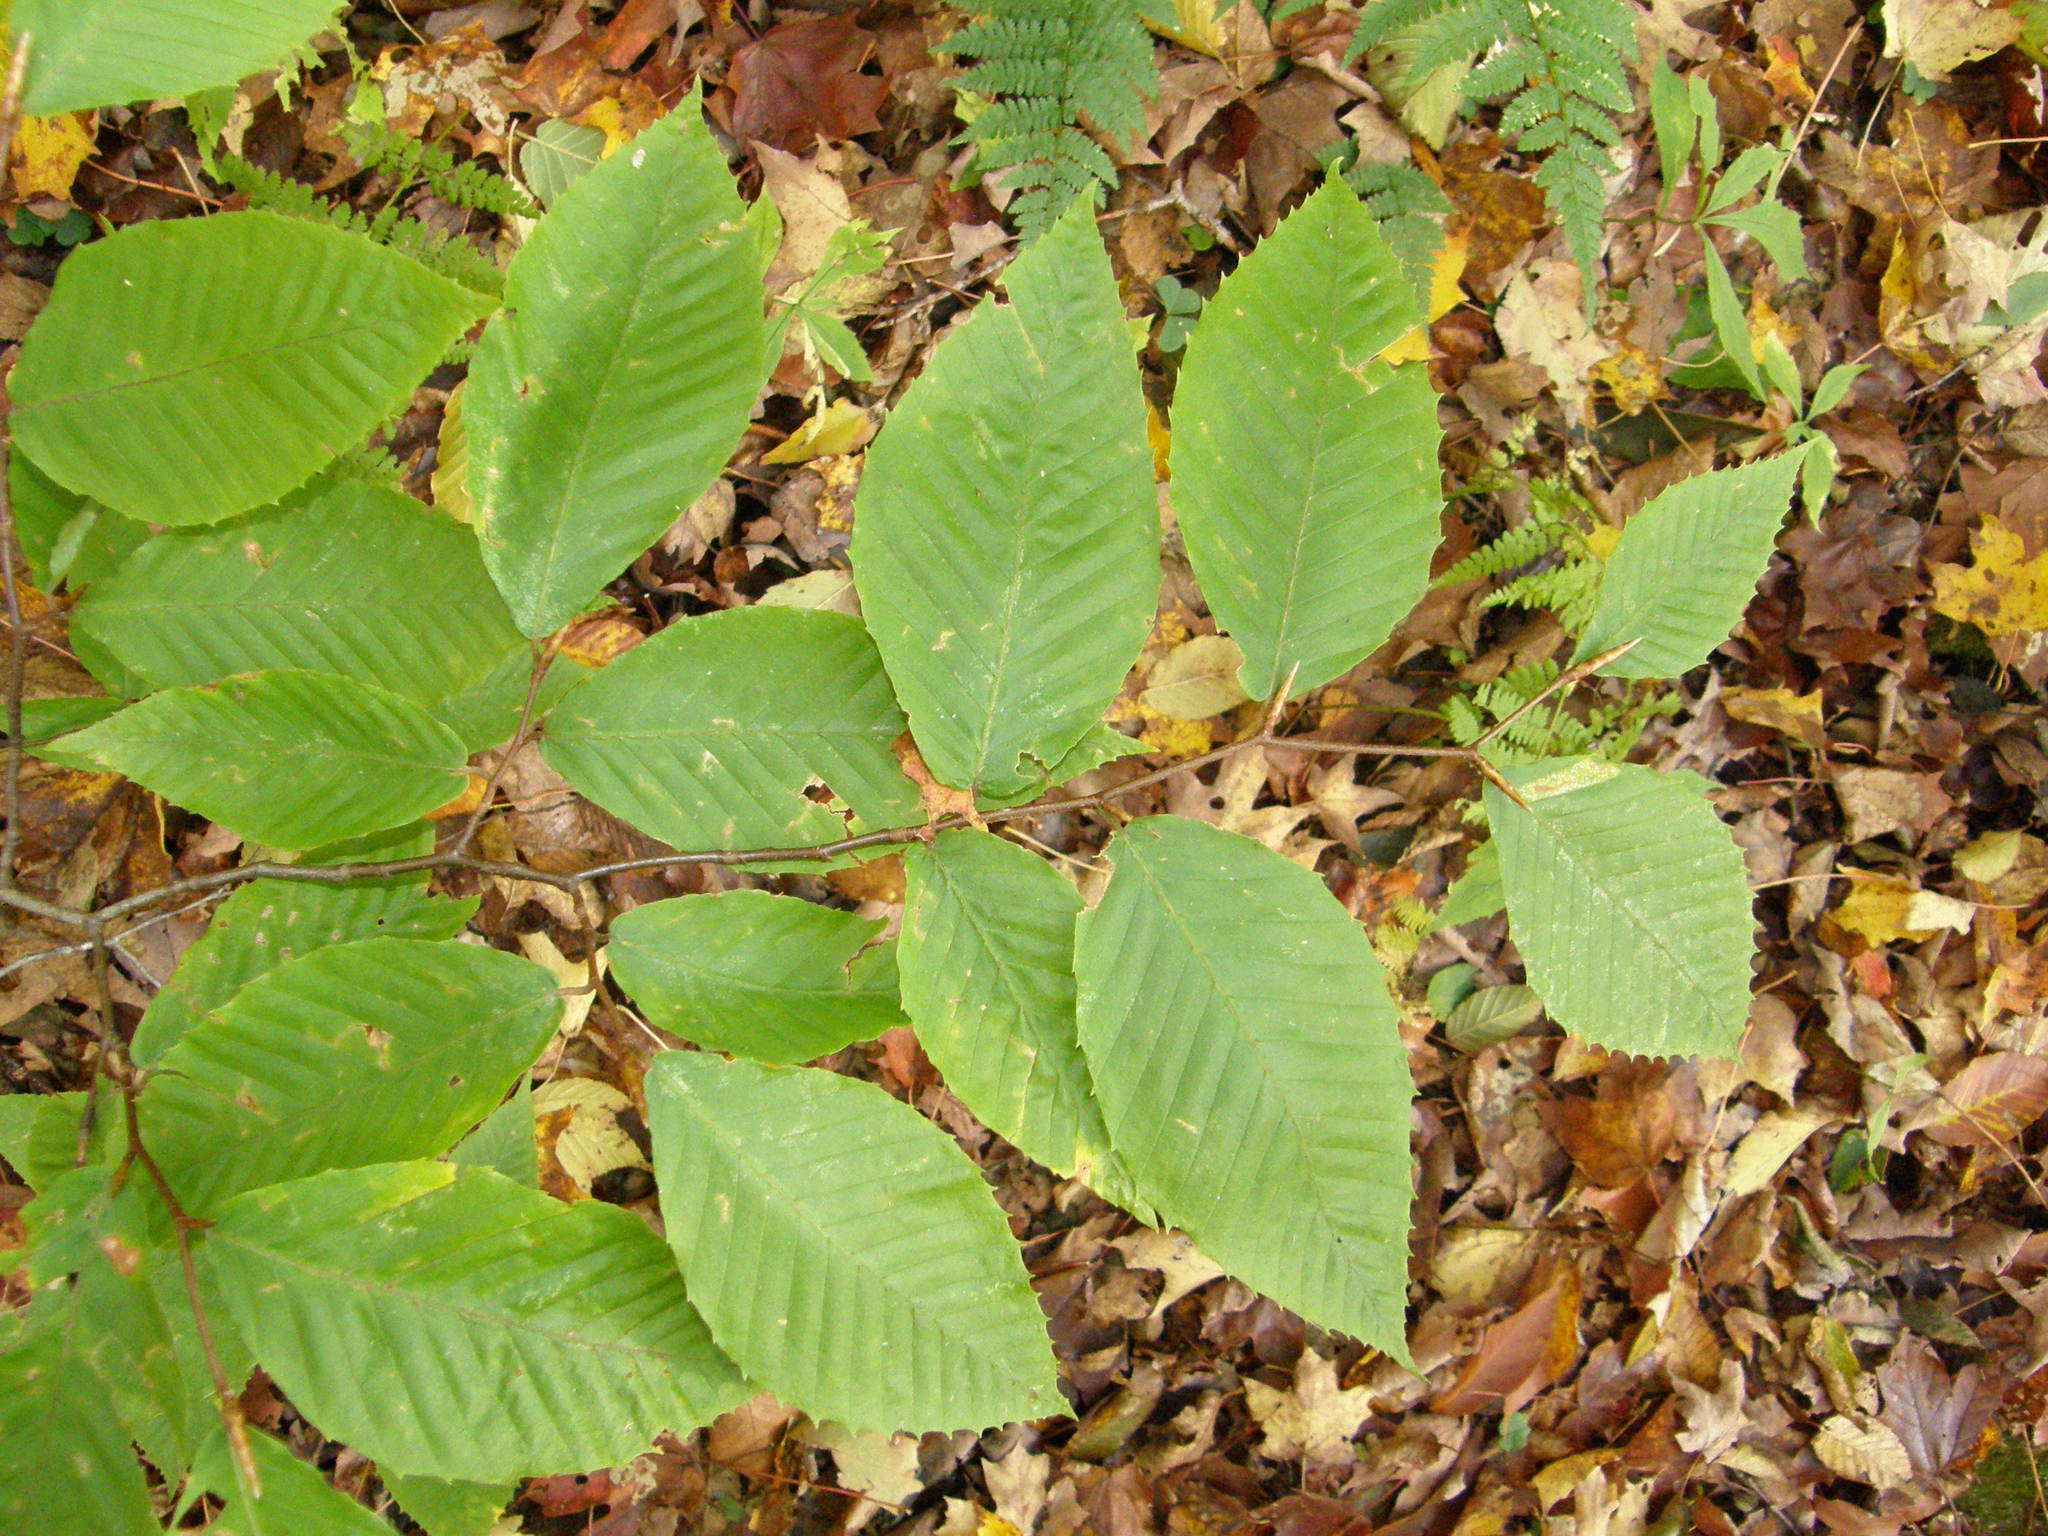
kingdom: Plantae
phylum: Tracheophyta
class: Magnoliopsida
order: Fagales
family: Fagaceae
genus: Fagus
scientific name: Fagus grandifolia
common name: American beech
